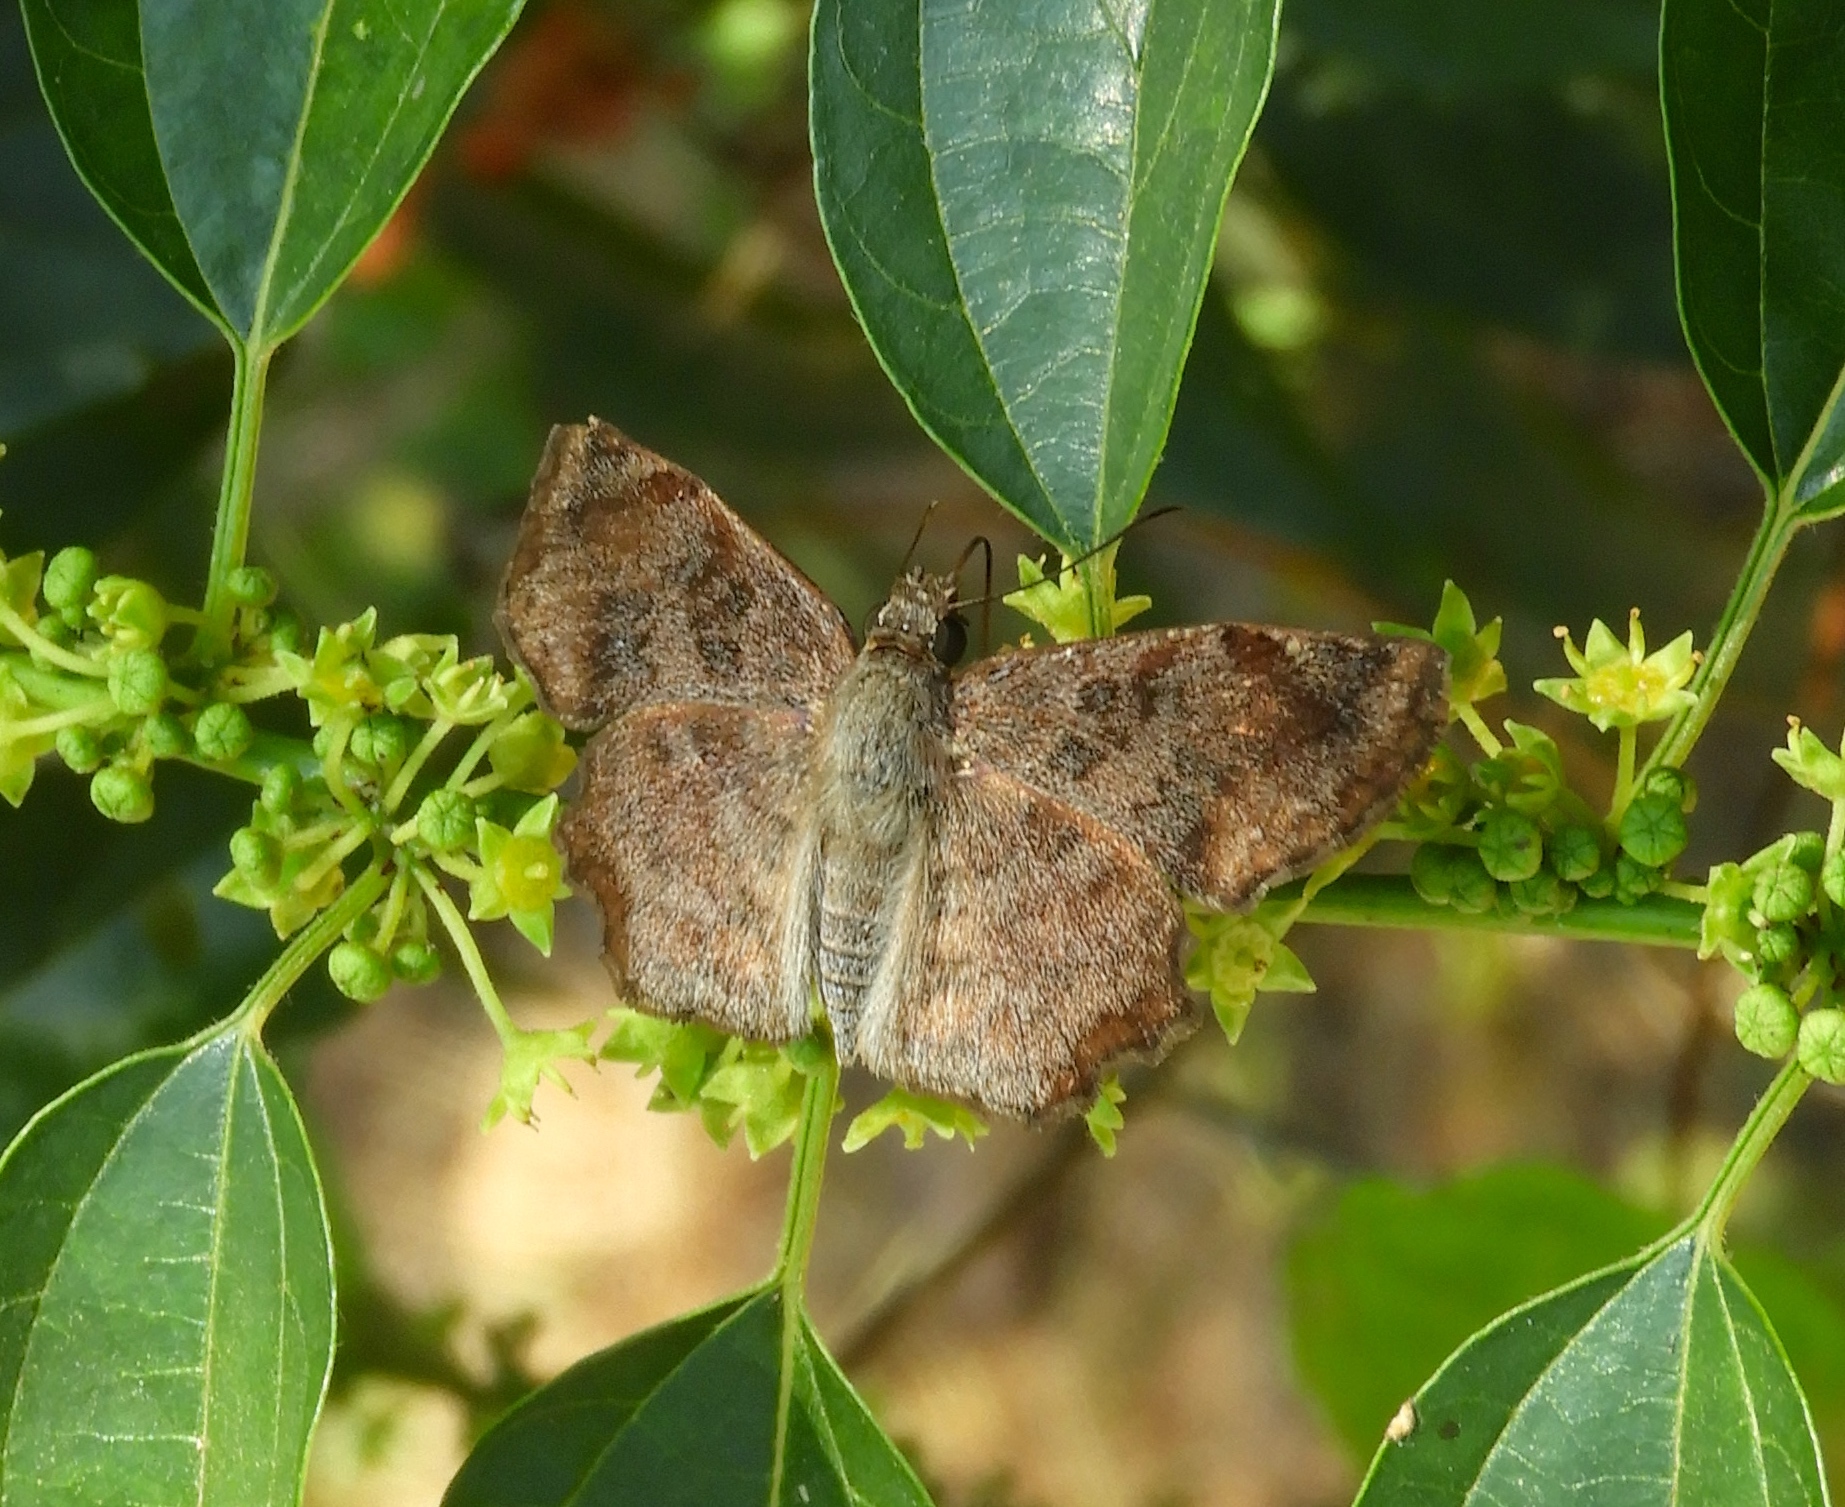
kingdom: Animalia
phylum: Arthropoda
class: Insecta
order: Lepidoptera
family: Hesperiidae
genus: Antigonus
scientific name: Antigonus erosus
